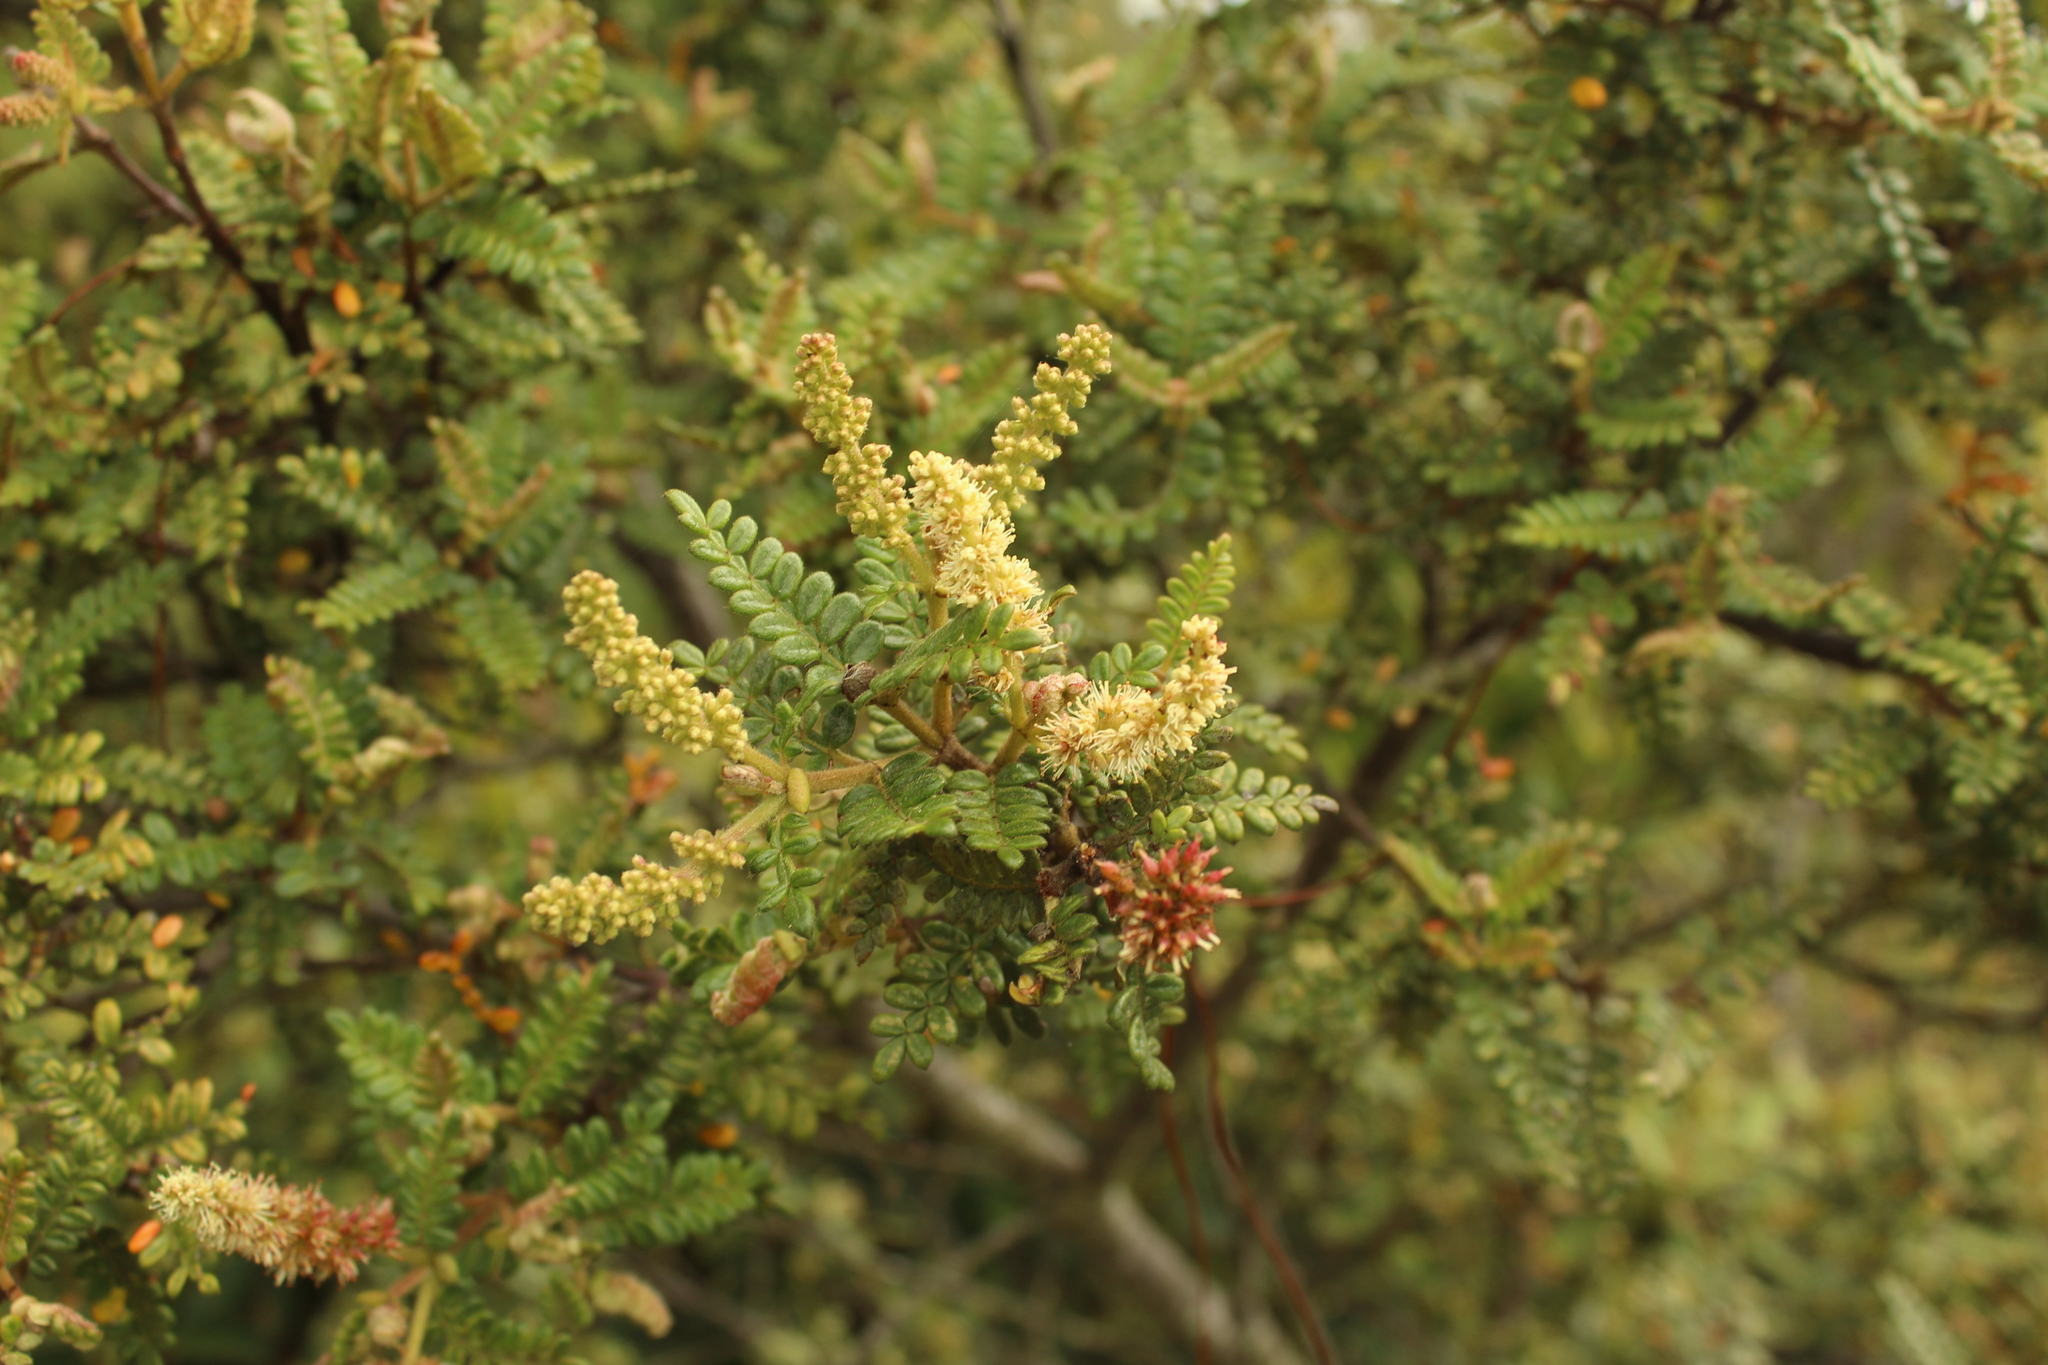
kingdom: Plantae
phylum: Tracheophyta
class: Magnoliopsida
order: Oxalidales
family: Cunoniaceae
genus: Weinmannia
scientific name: Weinmannia tomentosa
